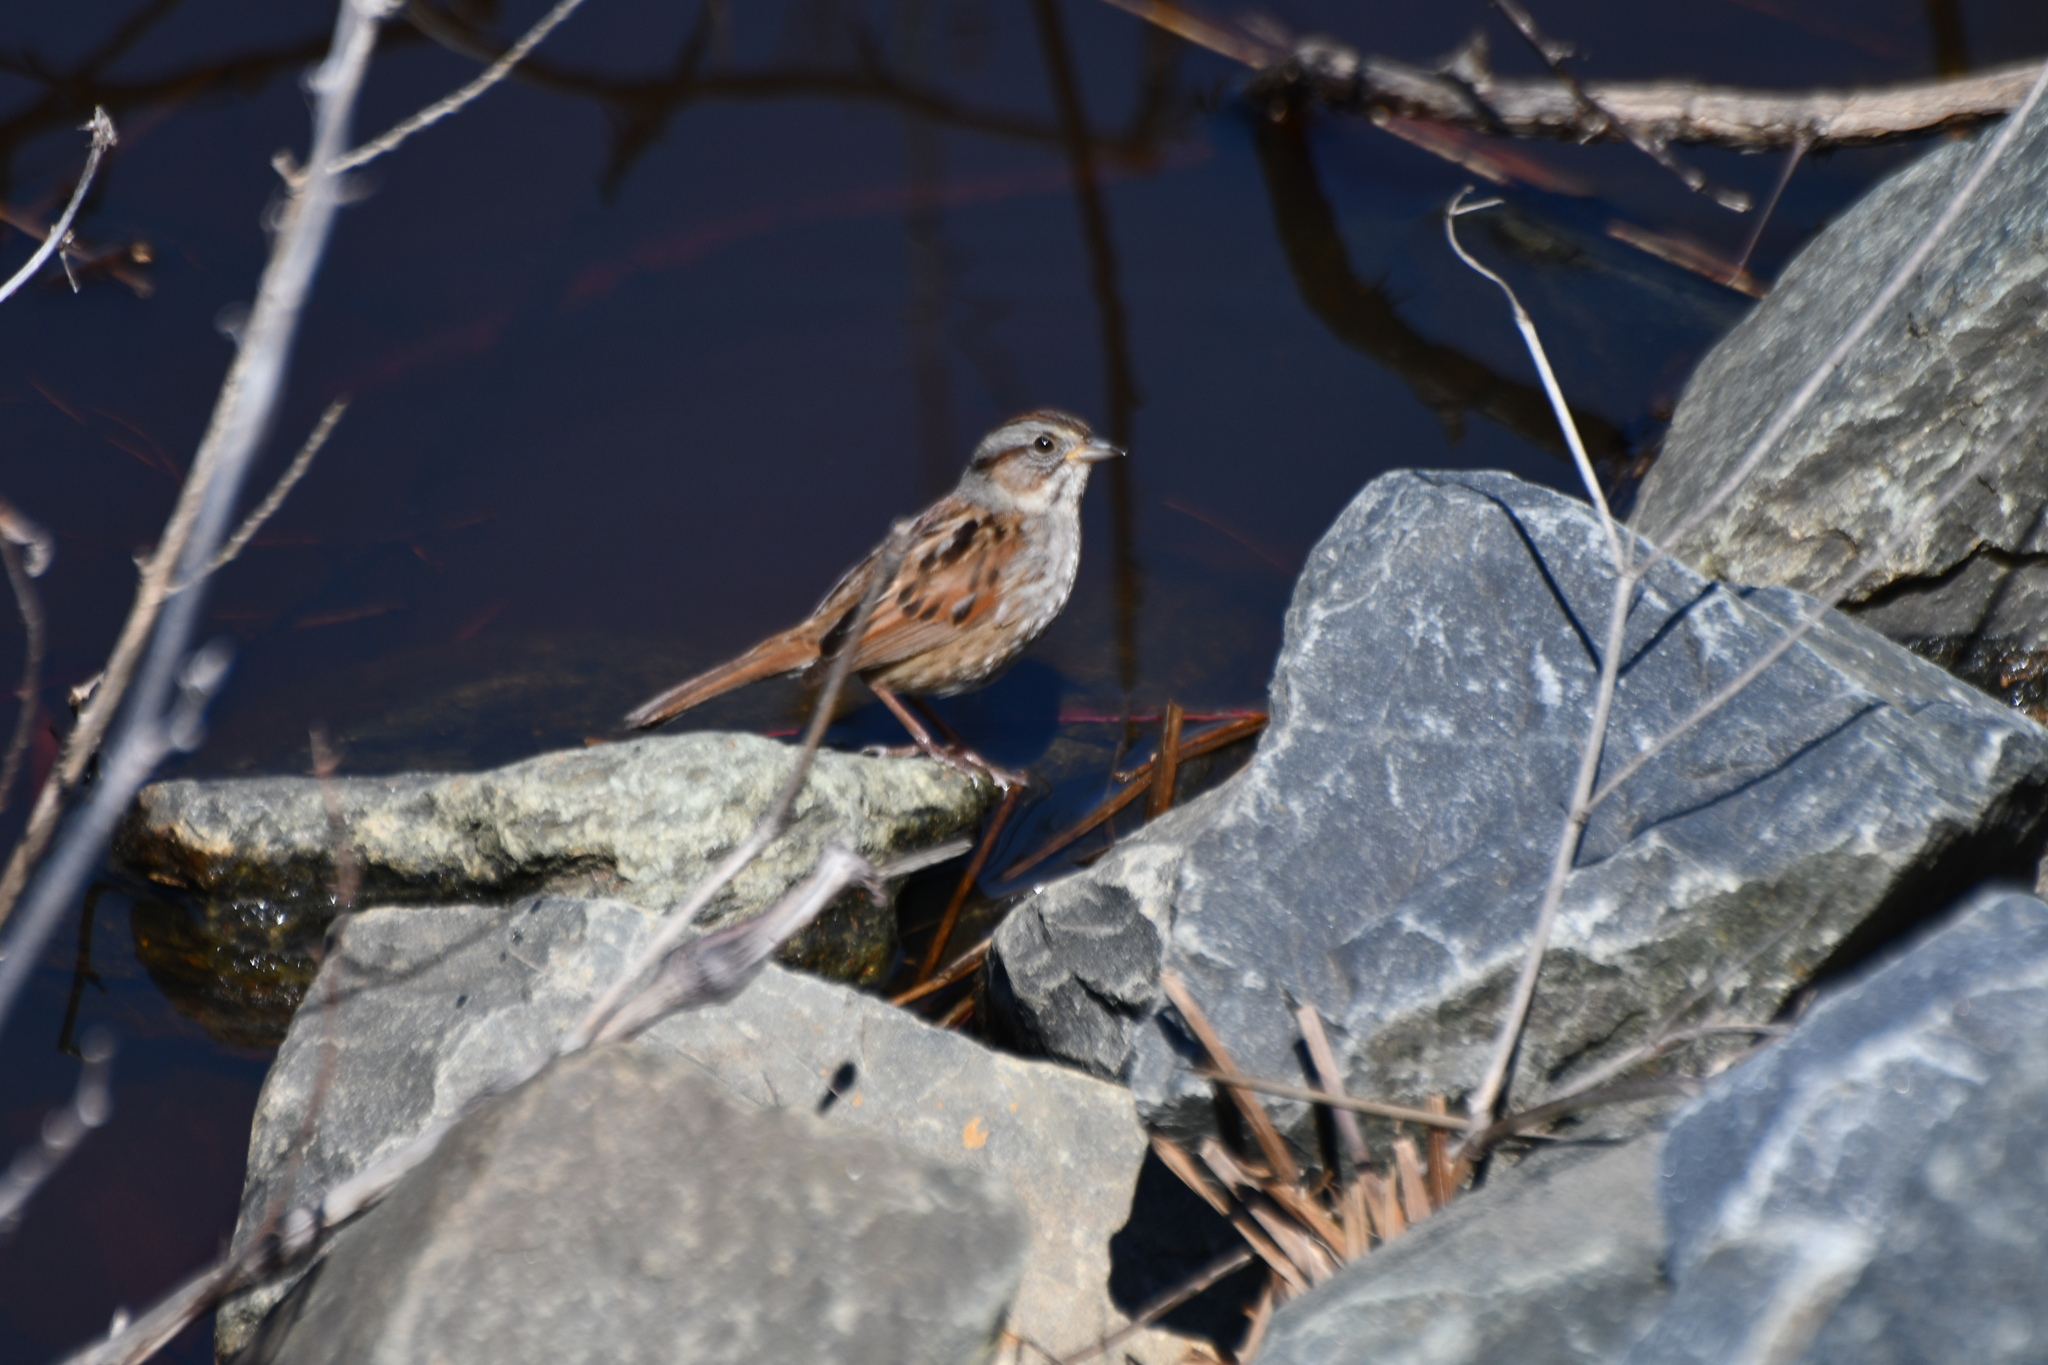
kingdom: Animalia
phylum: Chordata
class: Aves
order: Passeriformes
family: Passerellidae
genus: Melospiza
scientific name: Melospiza georgiana
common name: Swamp sparrow
